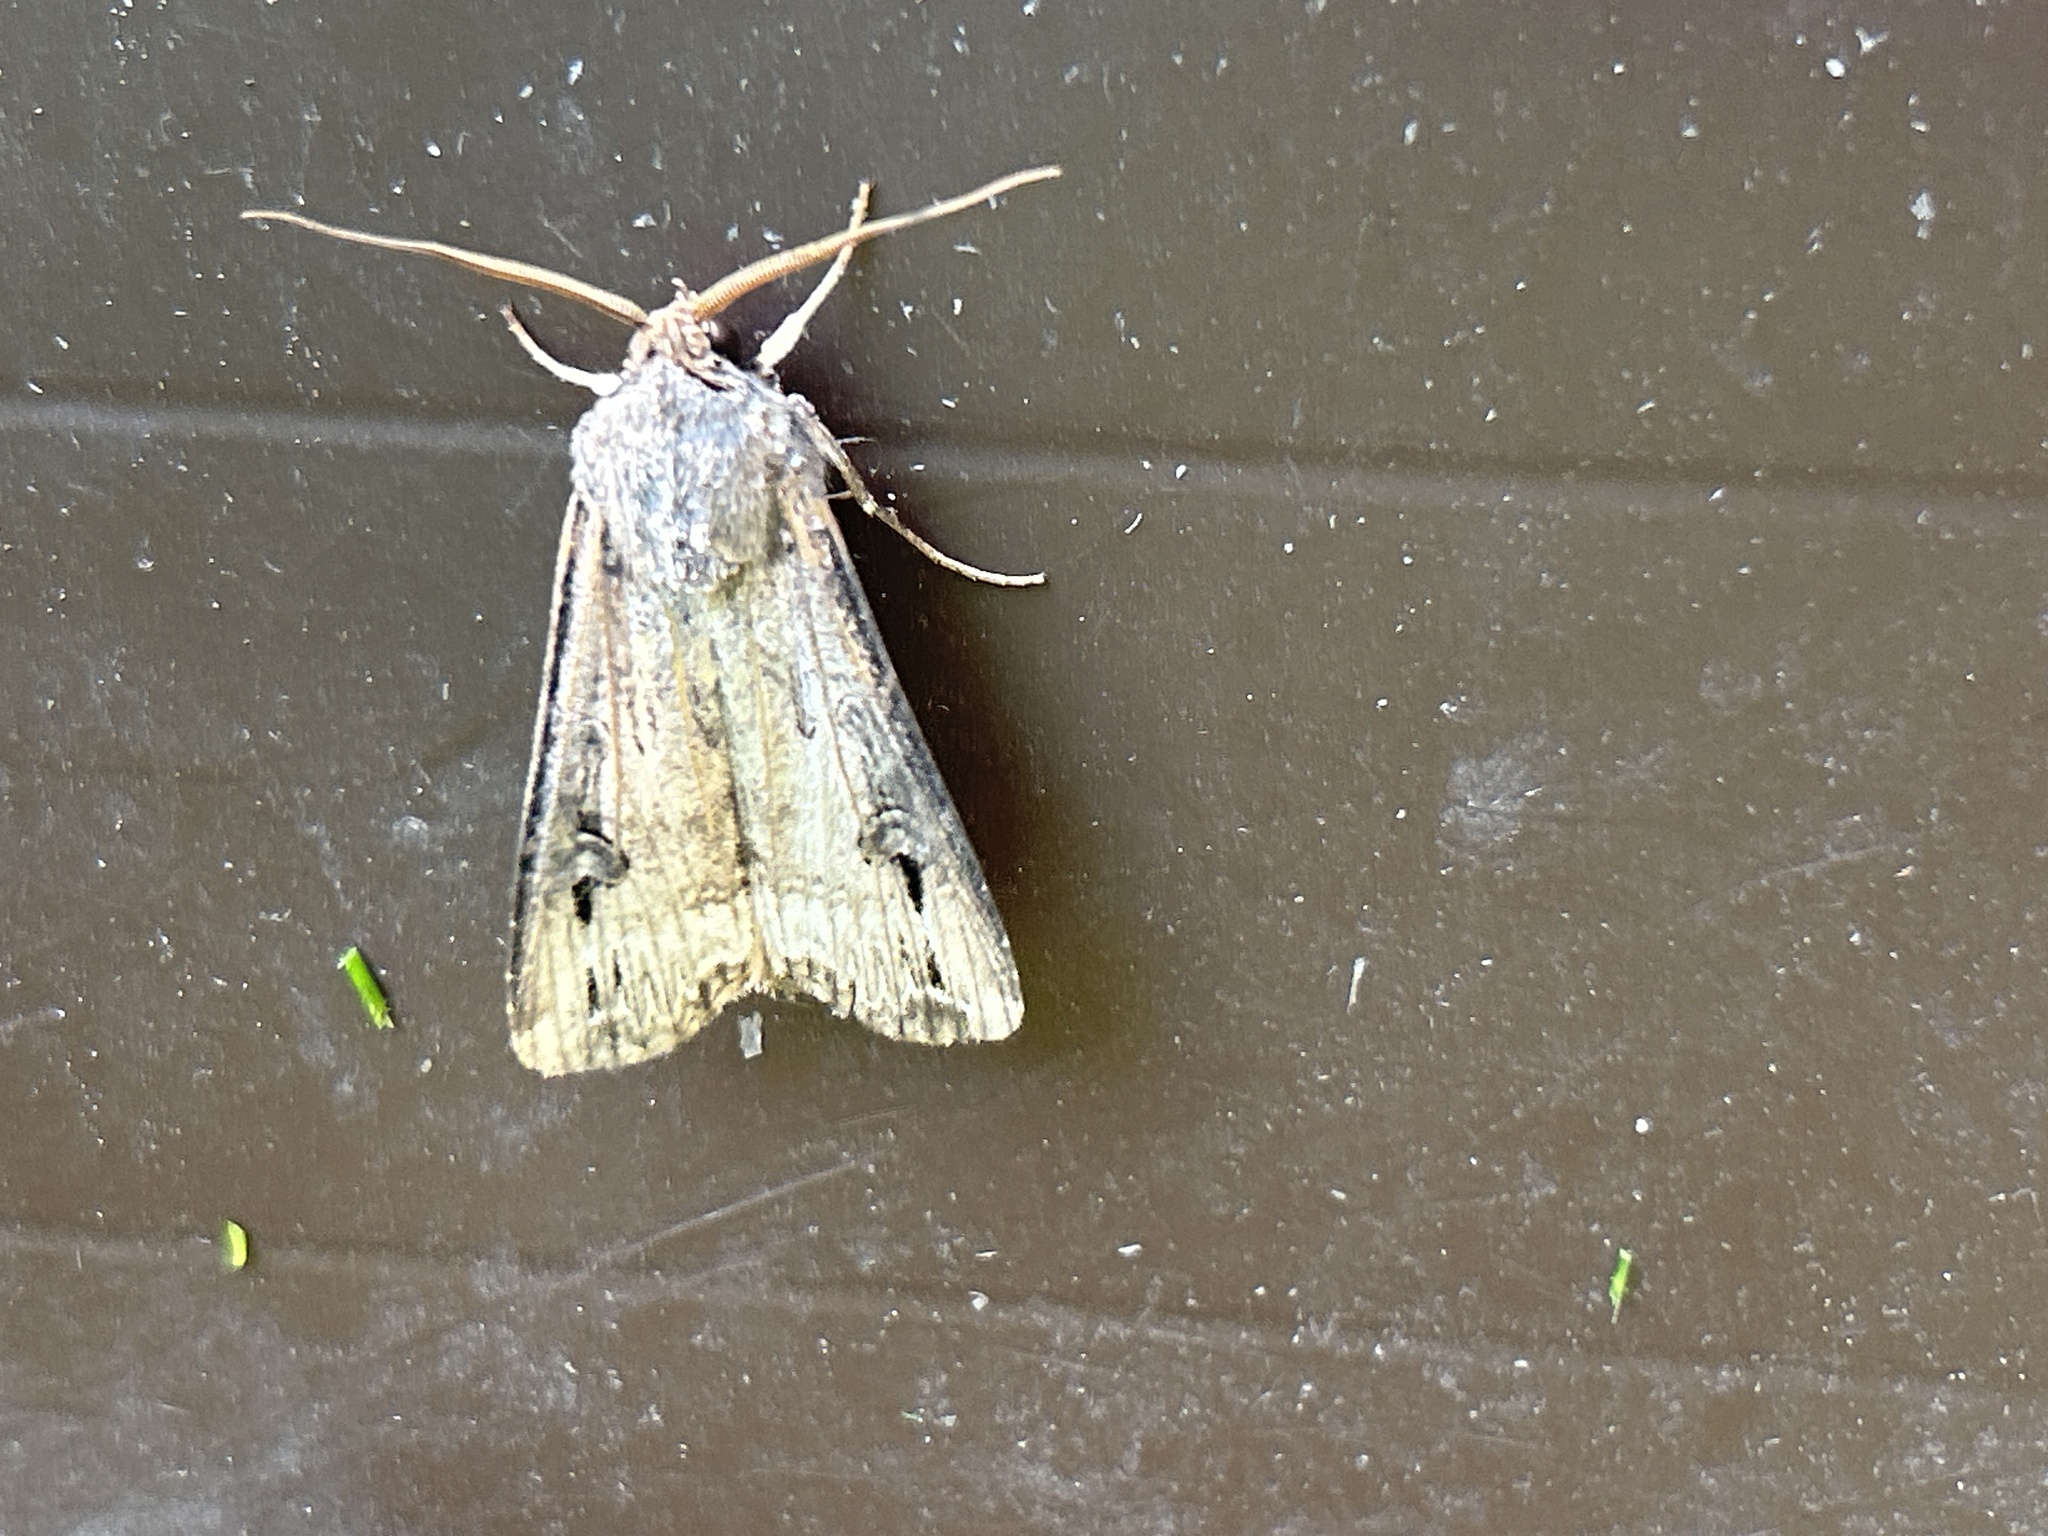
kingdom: Animalia
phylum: Arthropoda
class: Insecta
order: Lepidoptera
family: Noctuidae
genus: Agrotis
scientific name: Agrotis ipsilon
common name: Dark sword-grass
